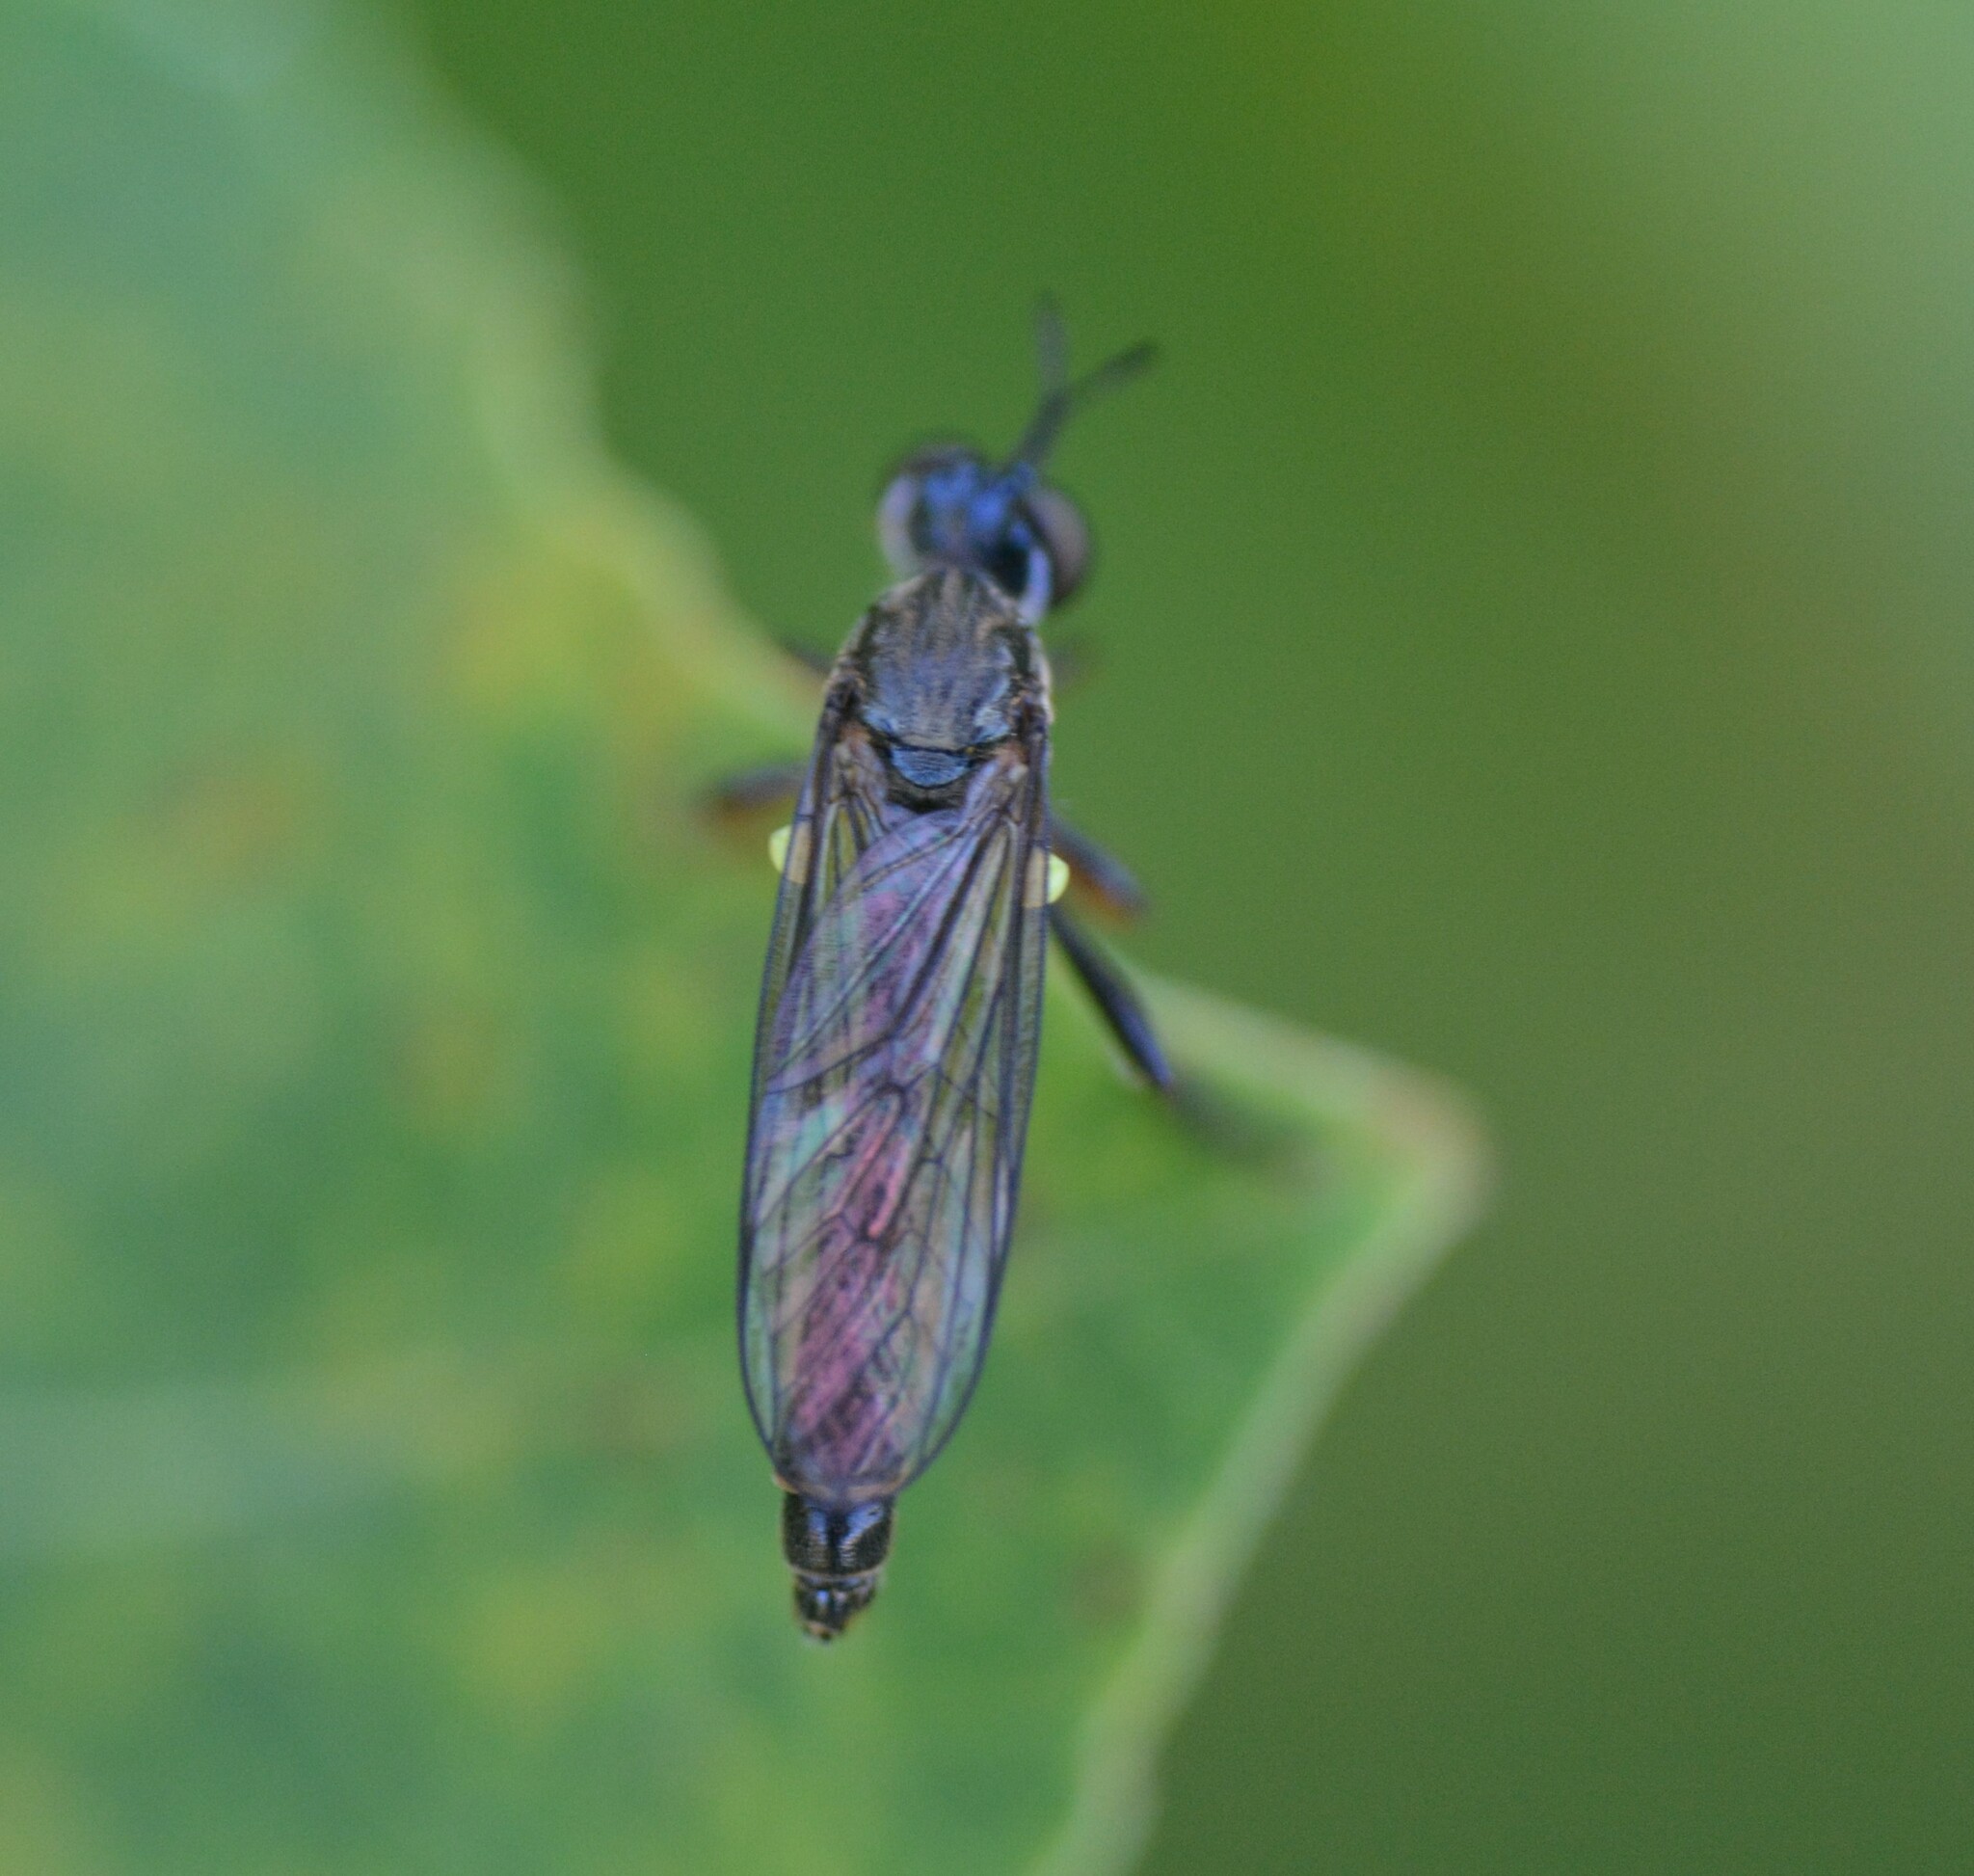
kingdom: Animalia
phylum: Arthropoda
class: Insecta
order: Diptera
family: Asilidae
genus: Dioctria
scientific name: Dioctria hyalipennis
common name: Stripe-legged robberfly
